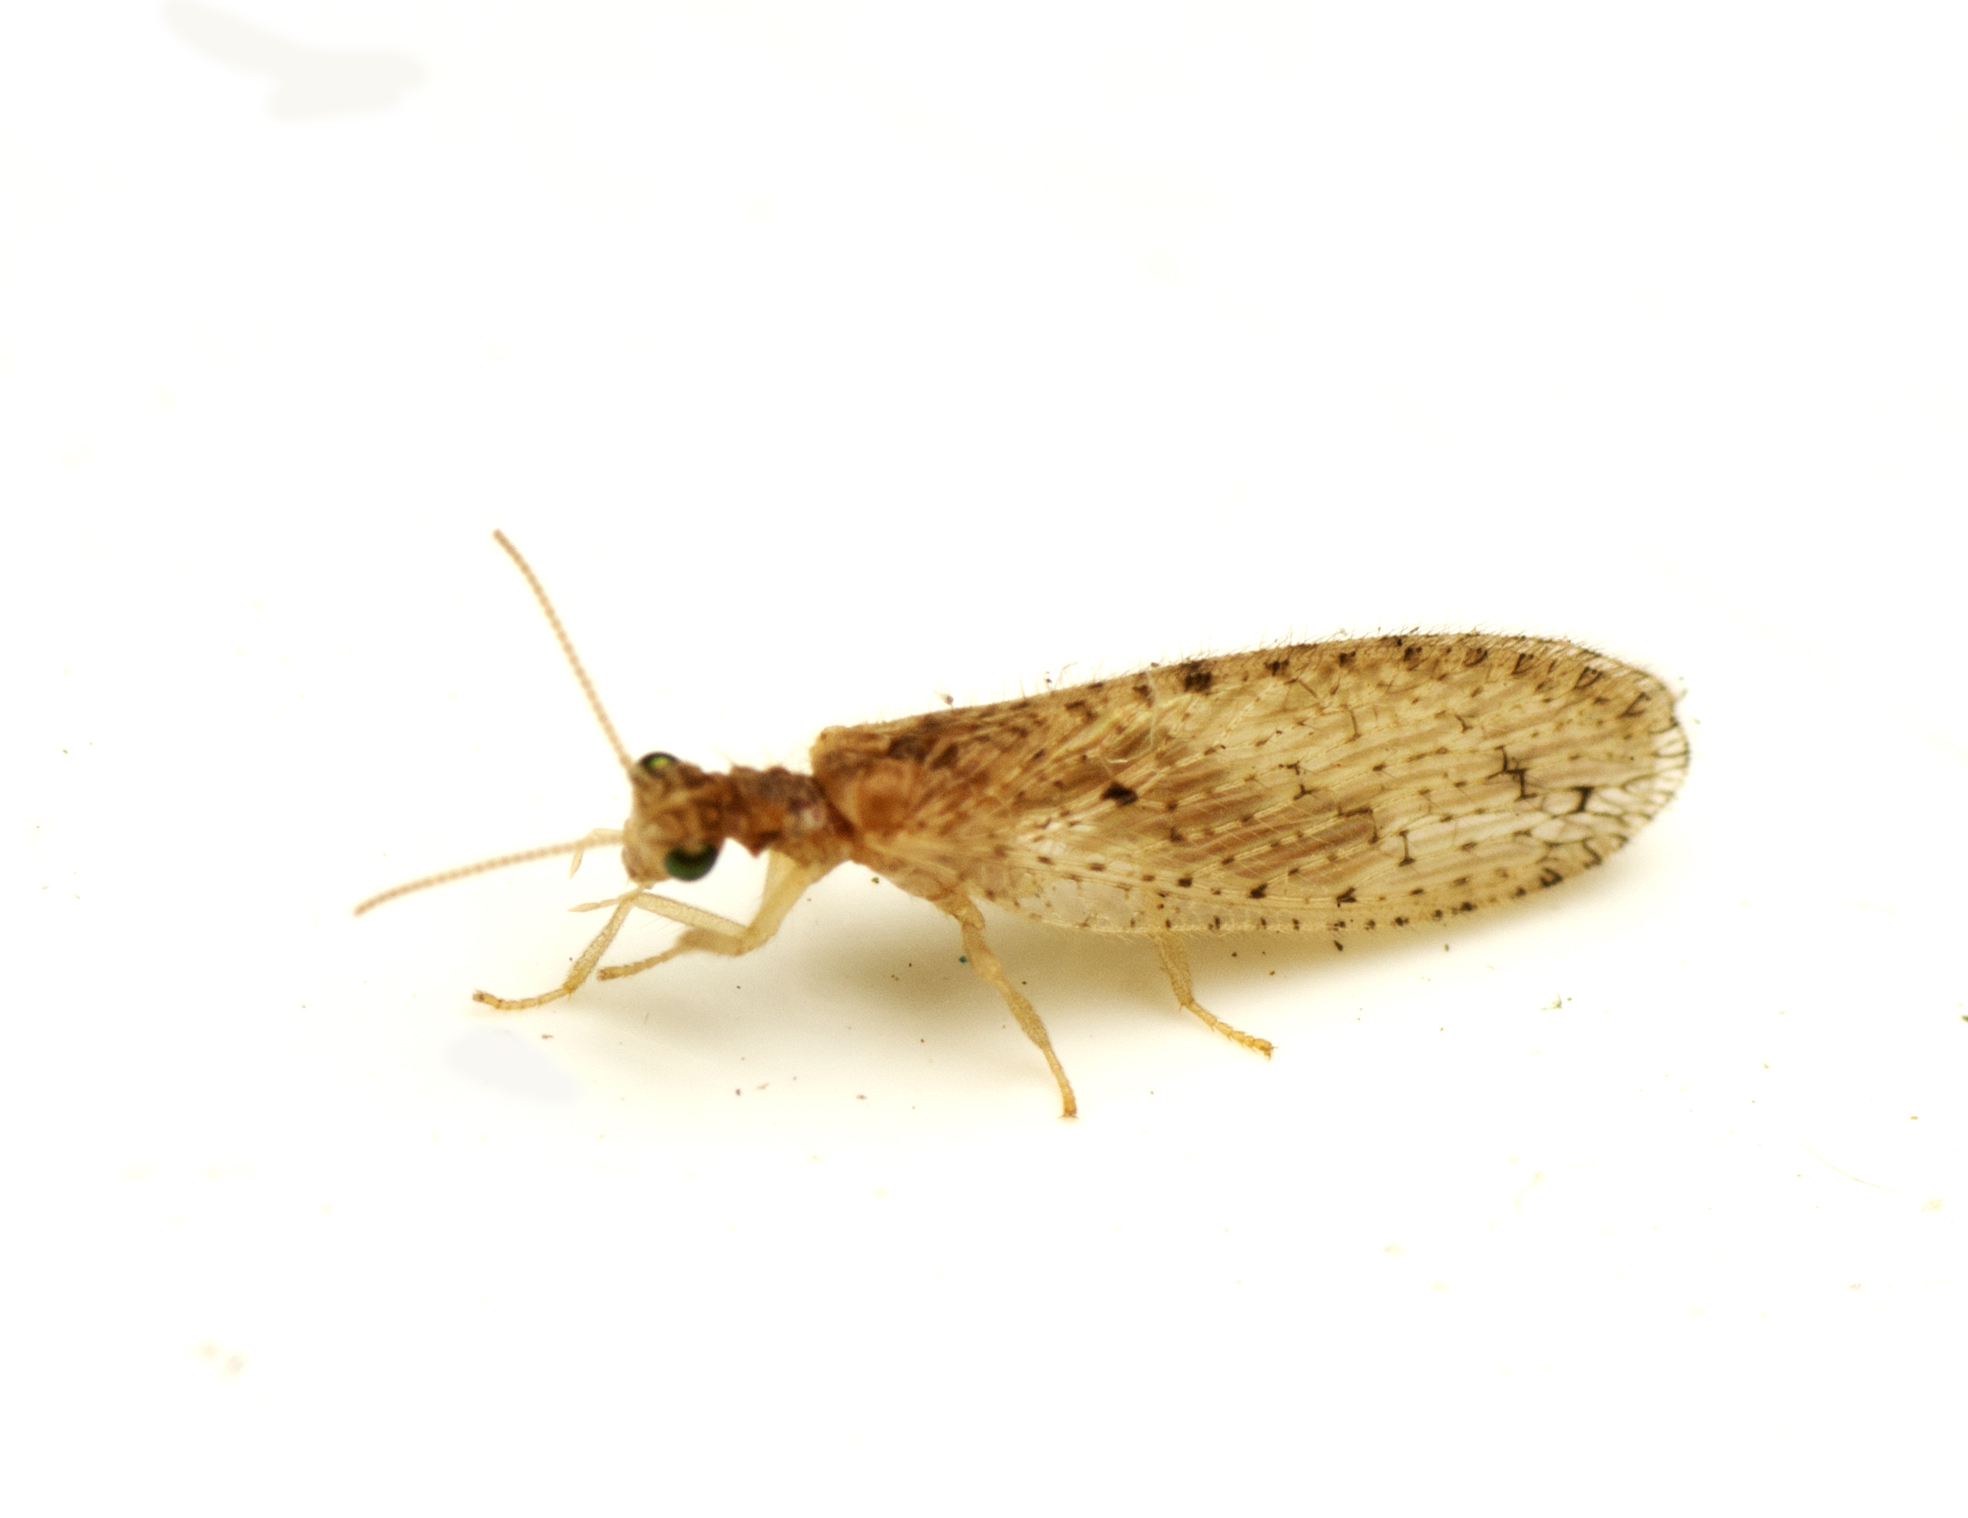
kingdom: Animalia
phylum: Arthropoda
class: Insecta
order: Neuroptera
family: Hemerobiidae
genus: Micromus
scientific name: Micromus tasmaniae
